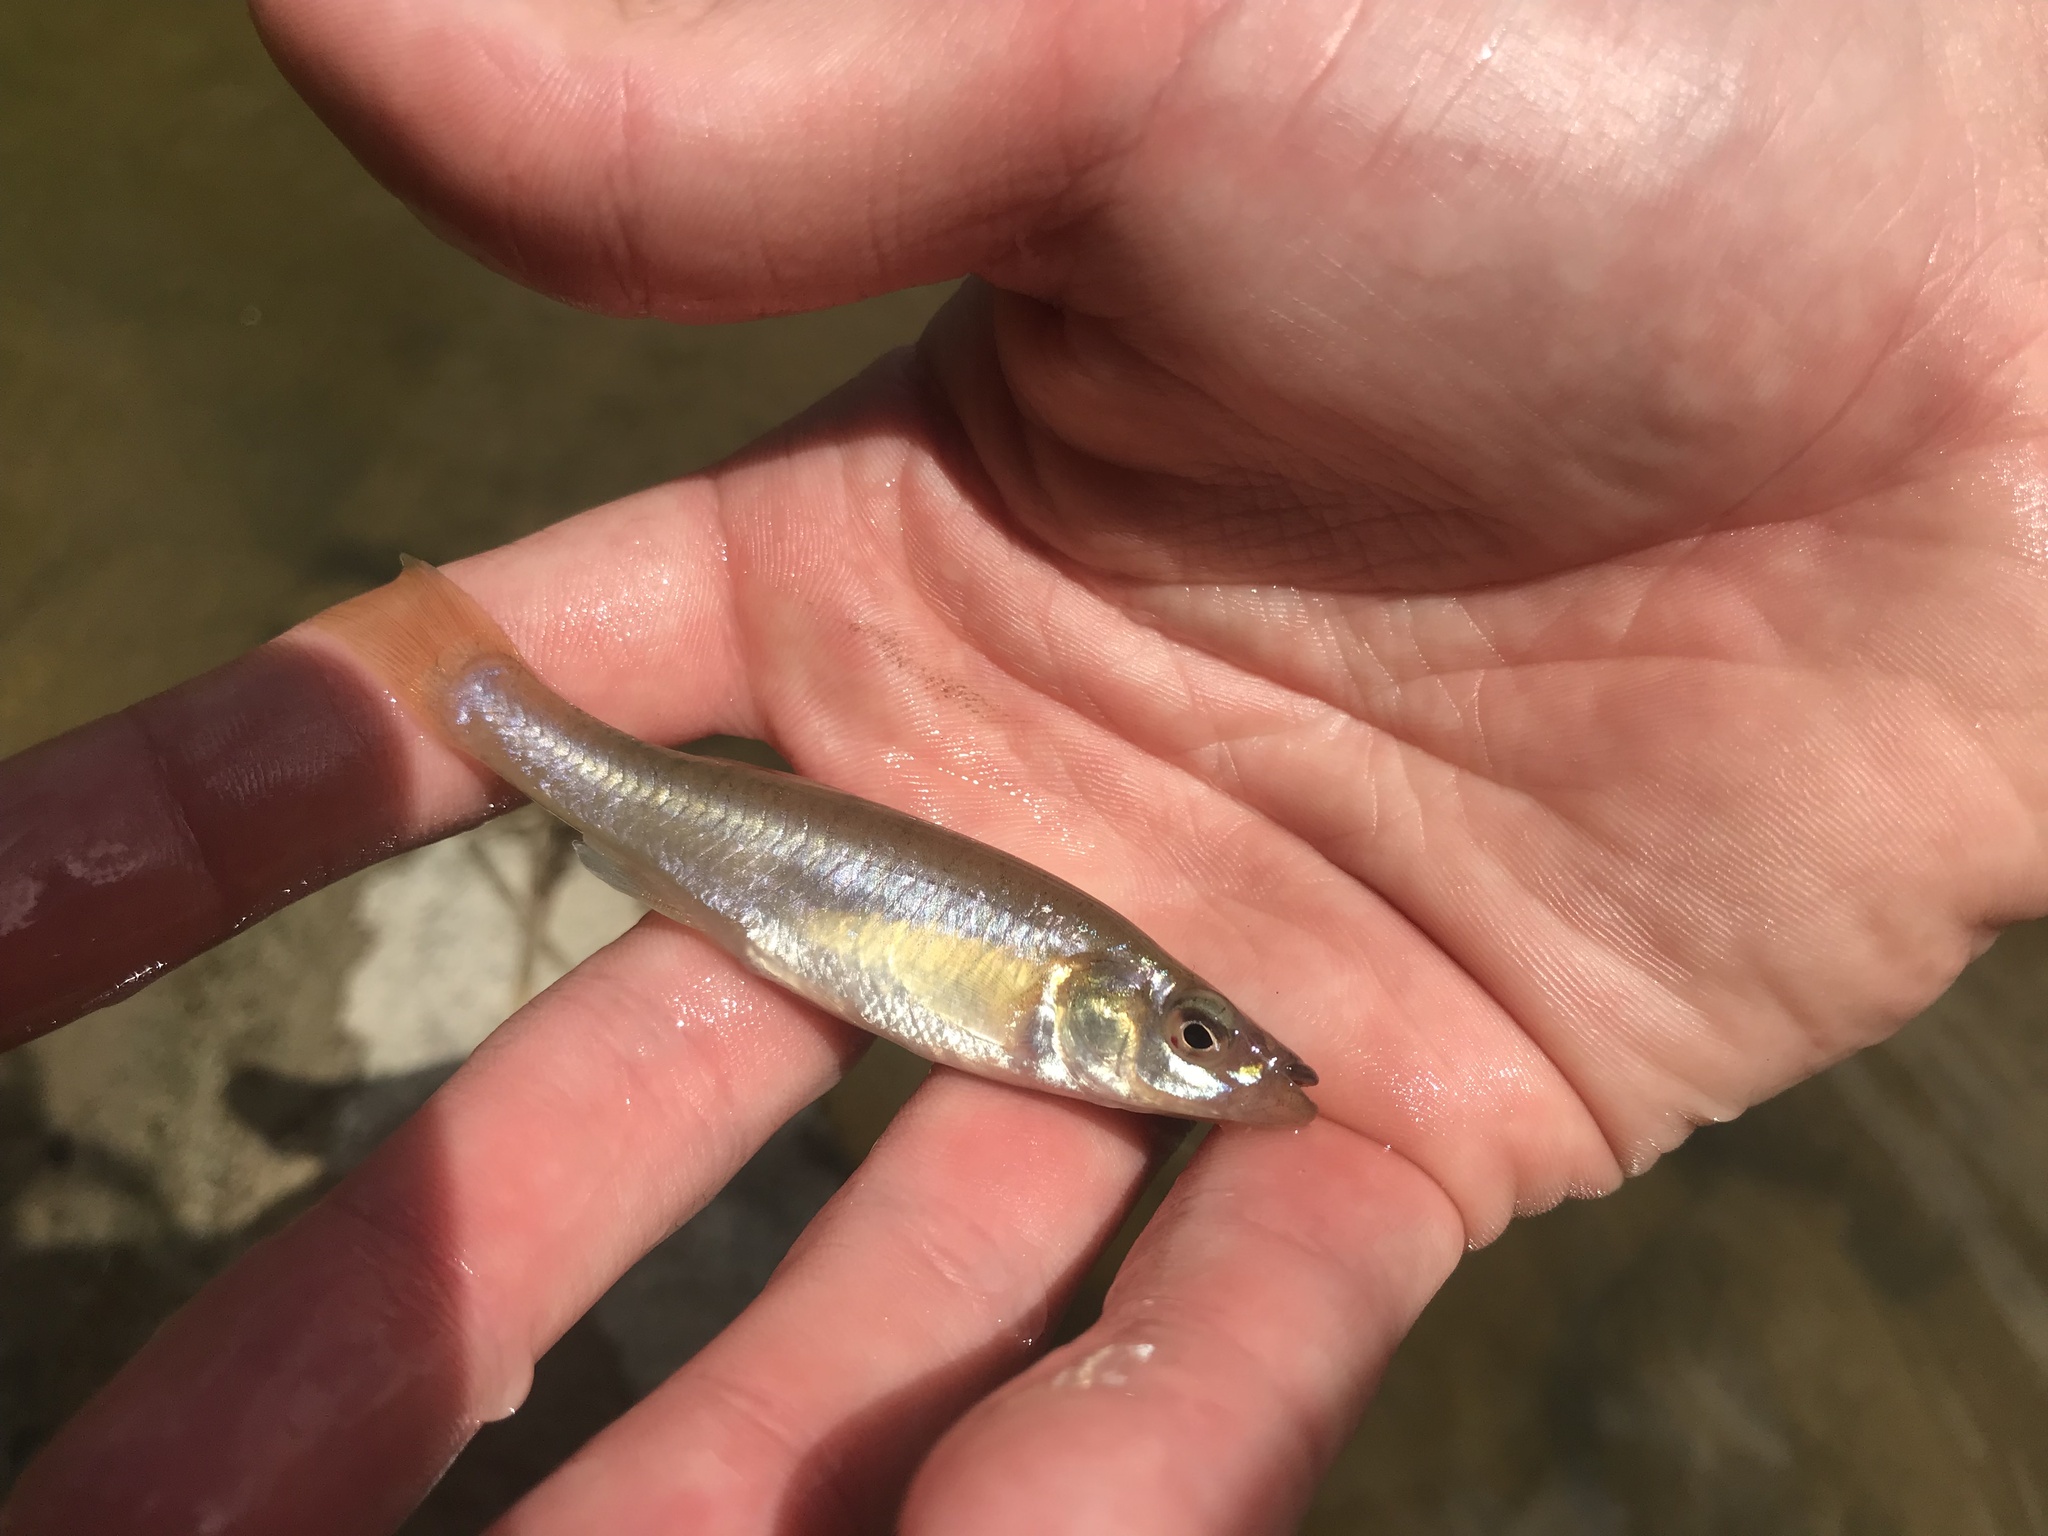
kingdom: Animalia
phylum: Chordata
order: Cyprinodontiformes
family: Fundulidae
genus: Fundulus
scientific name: Fundulus diaphanus
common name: Banded killifish
